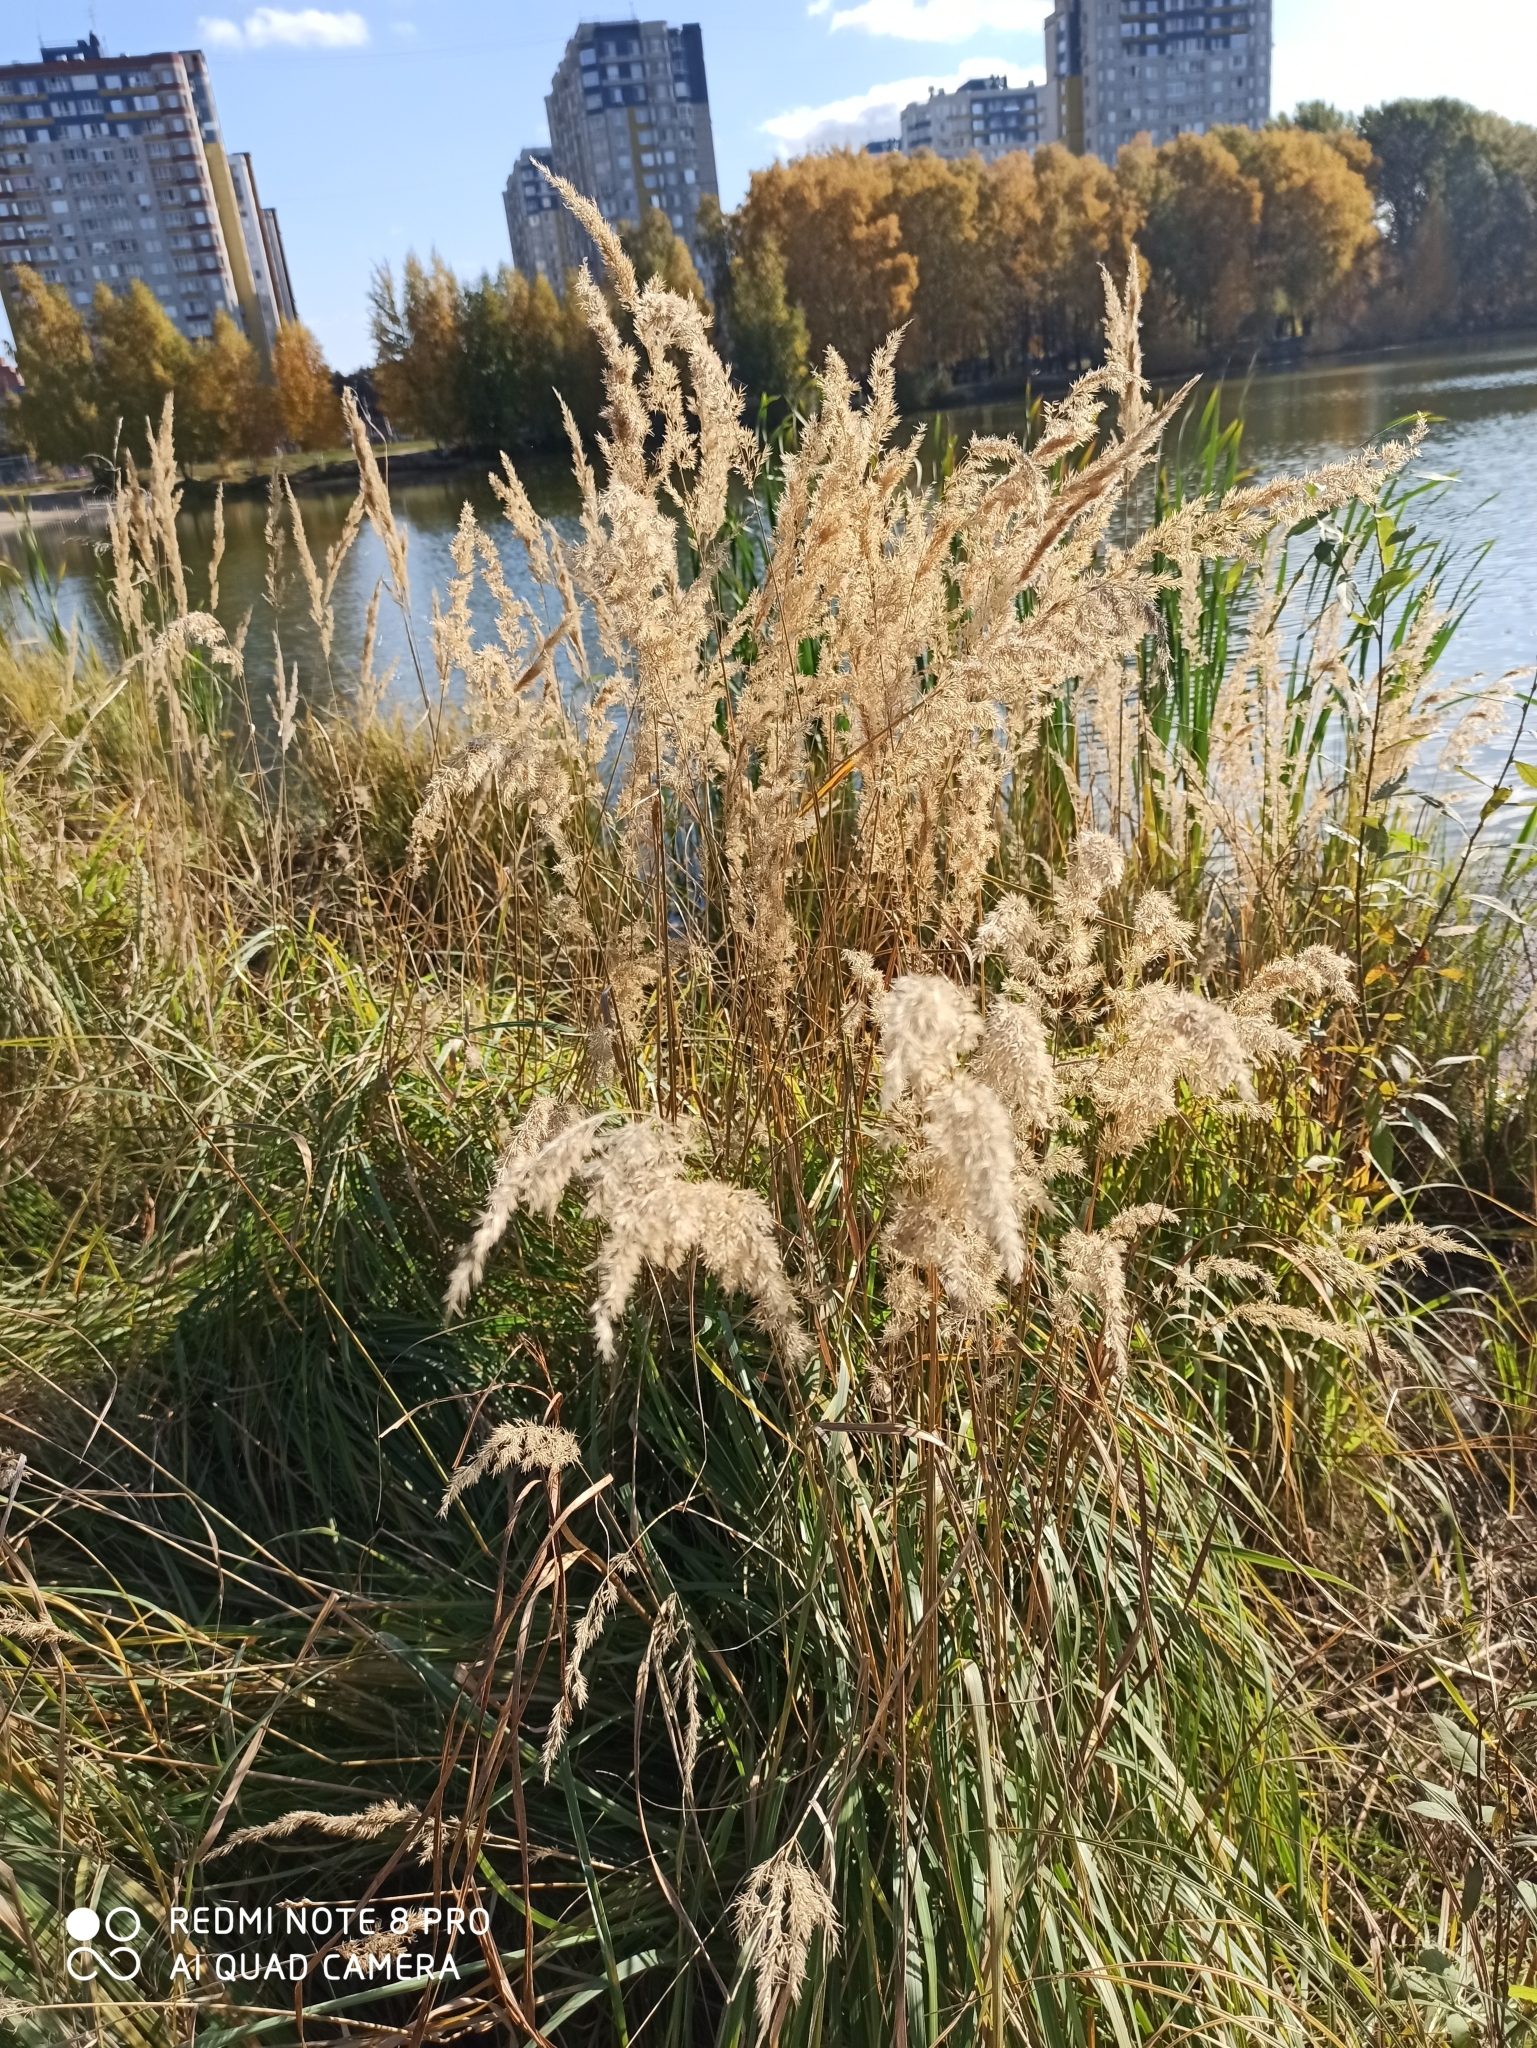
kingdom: Plantae
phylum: Tracheophyta
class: Liliopsida
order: Poales
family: Poaceae
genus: Calamagrostis
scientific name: Calamagrostis epigejos
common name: Wood small-reed
